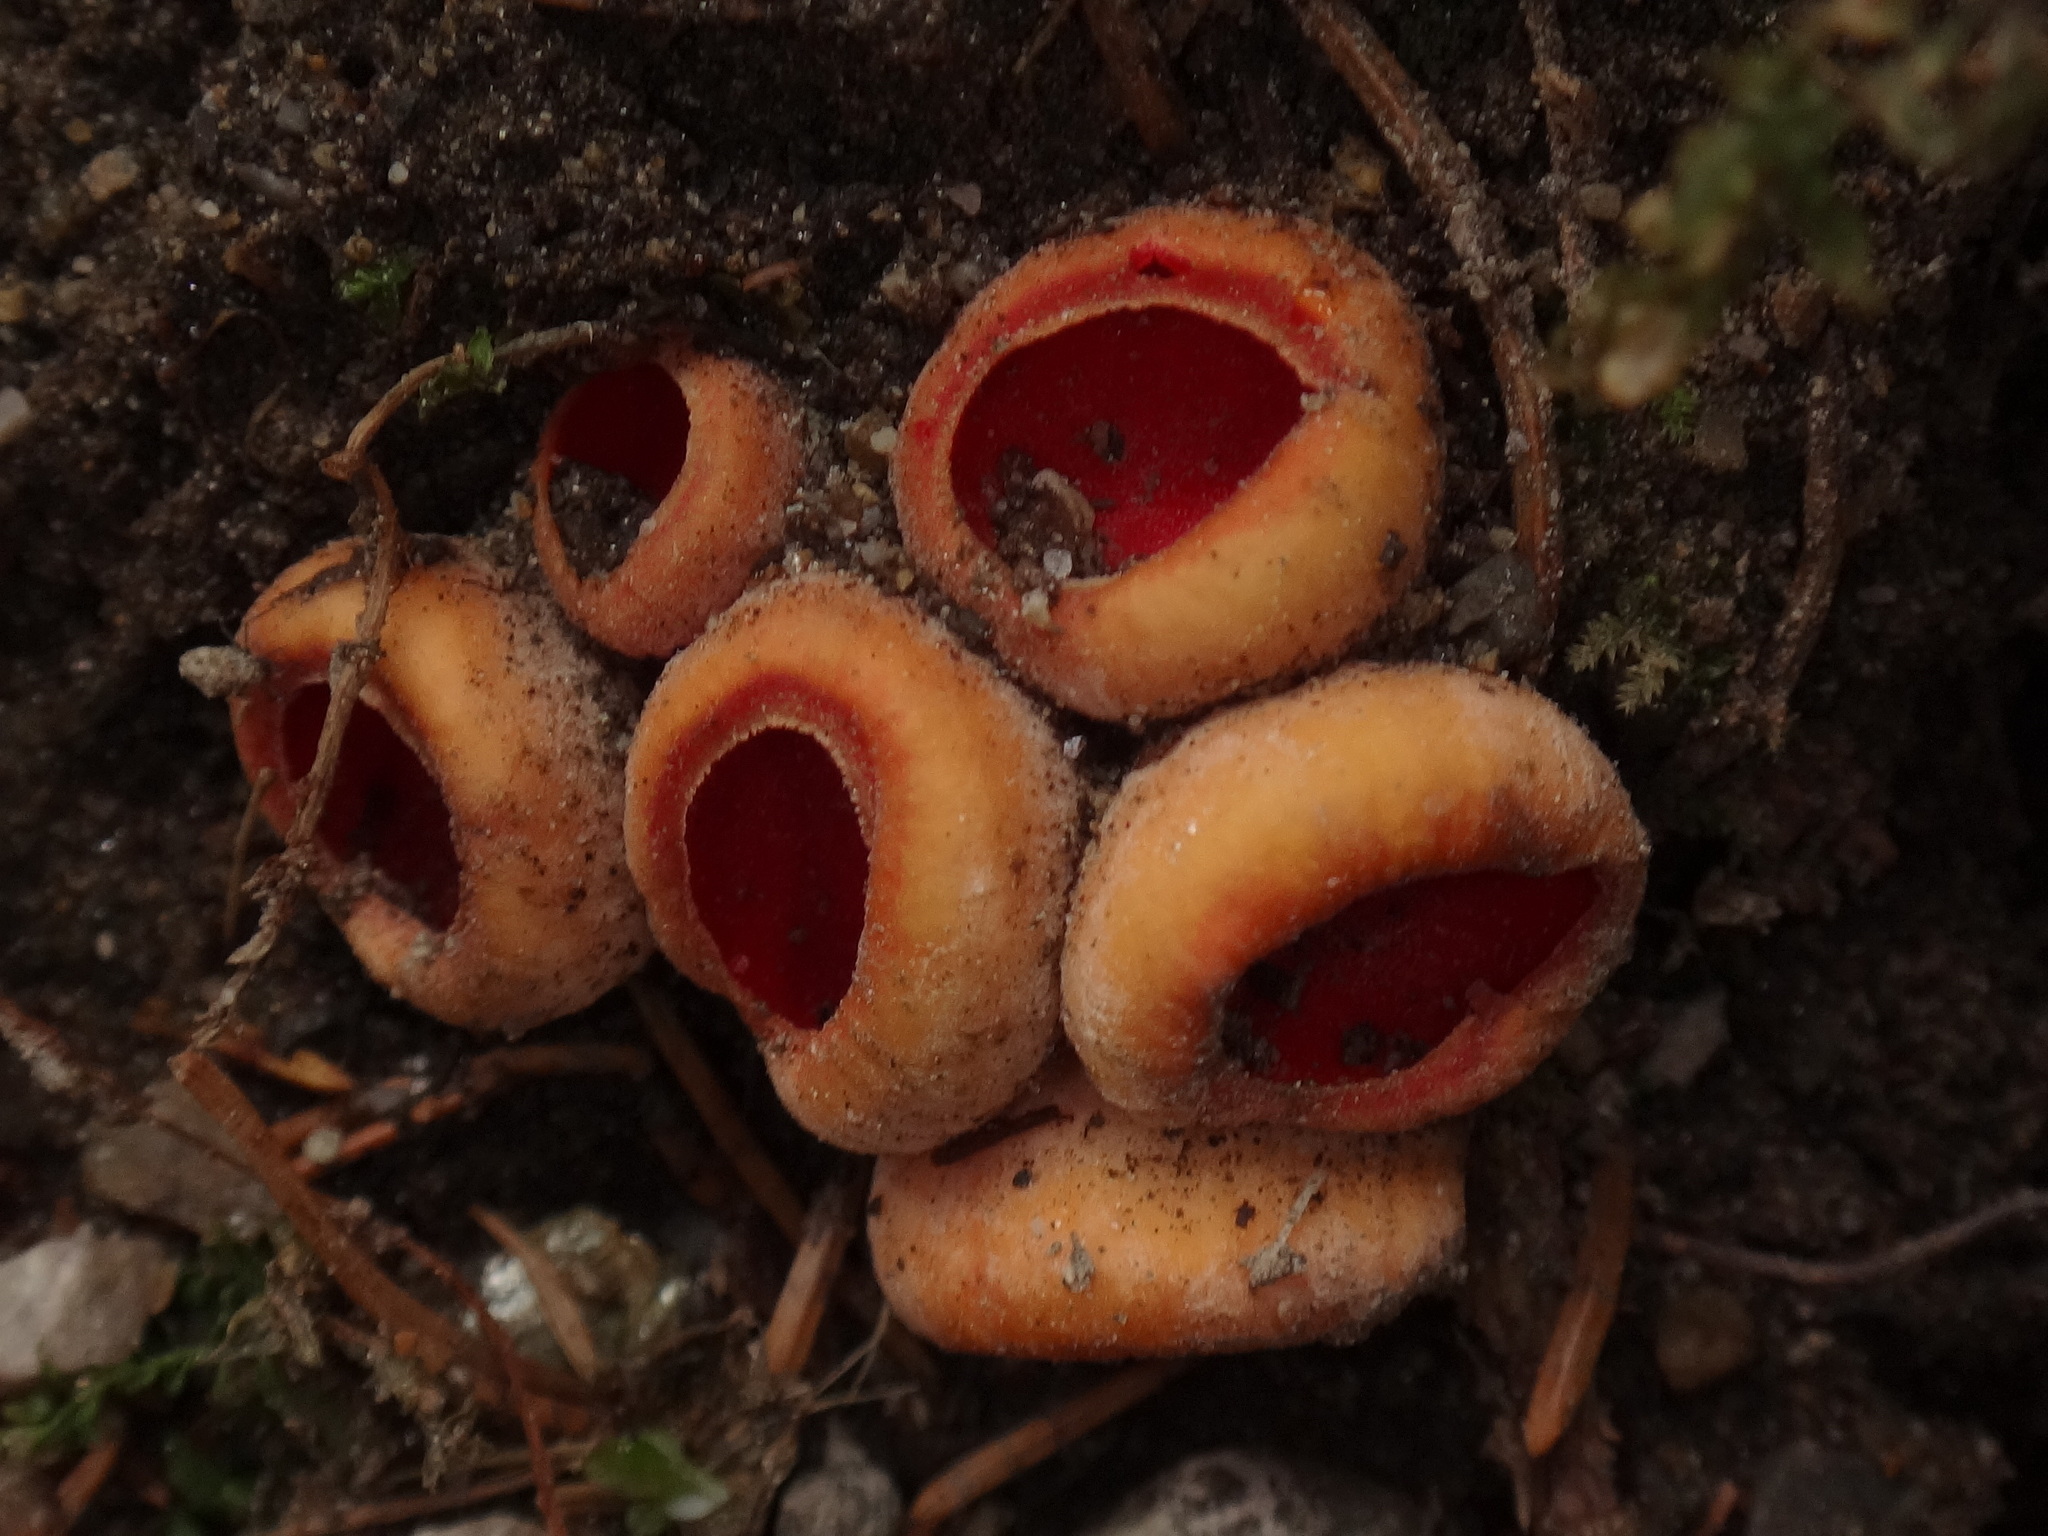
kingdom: Fungi
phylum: Ascomycota
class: Pezizomycetes
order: Pezizales
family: Sarcoscyphaceae
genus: Sarcoscypha
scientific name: Sarcoscypha
